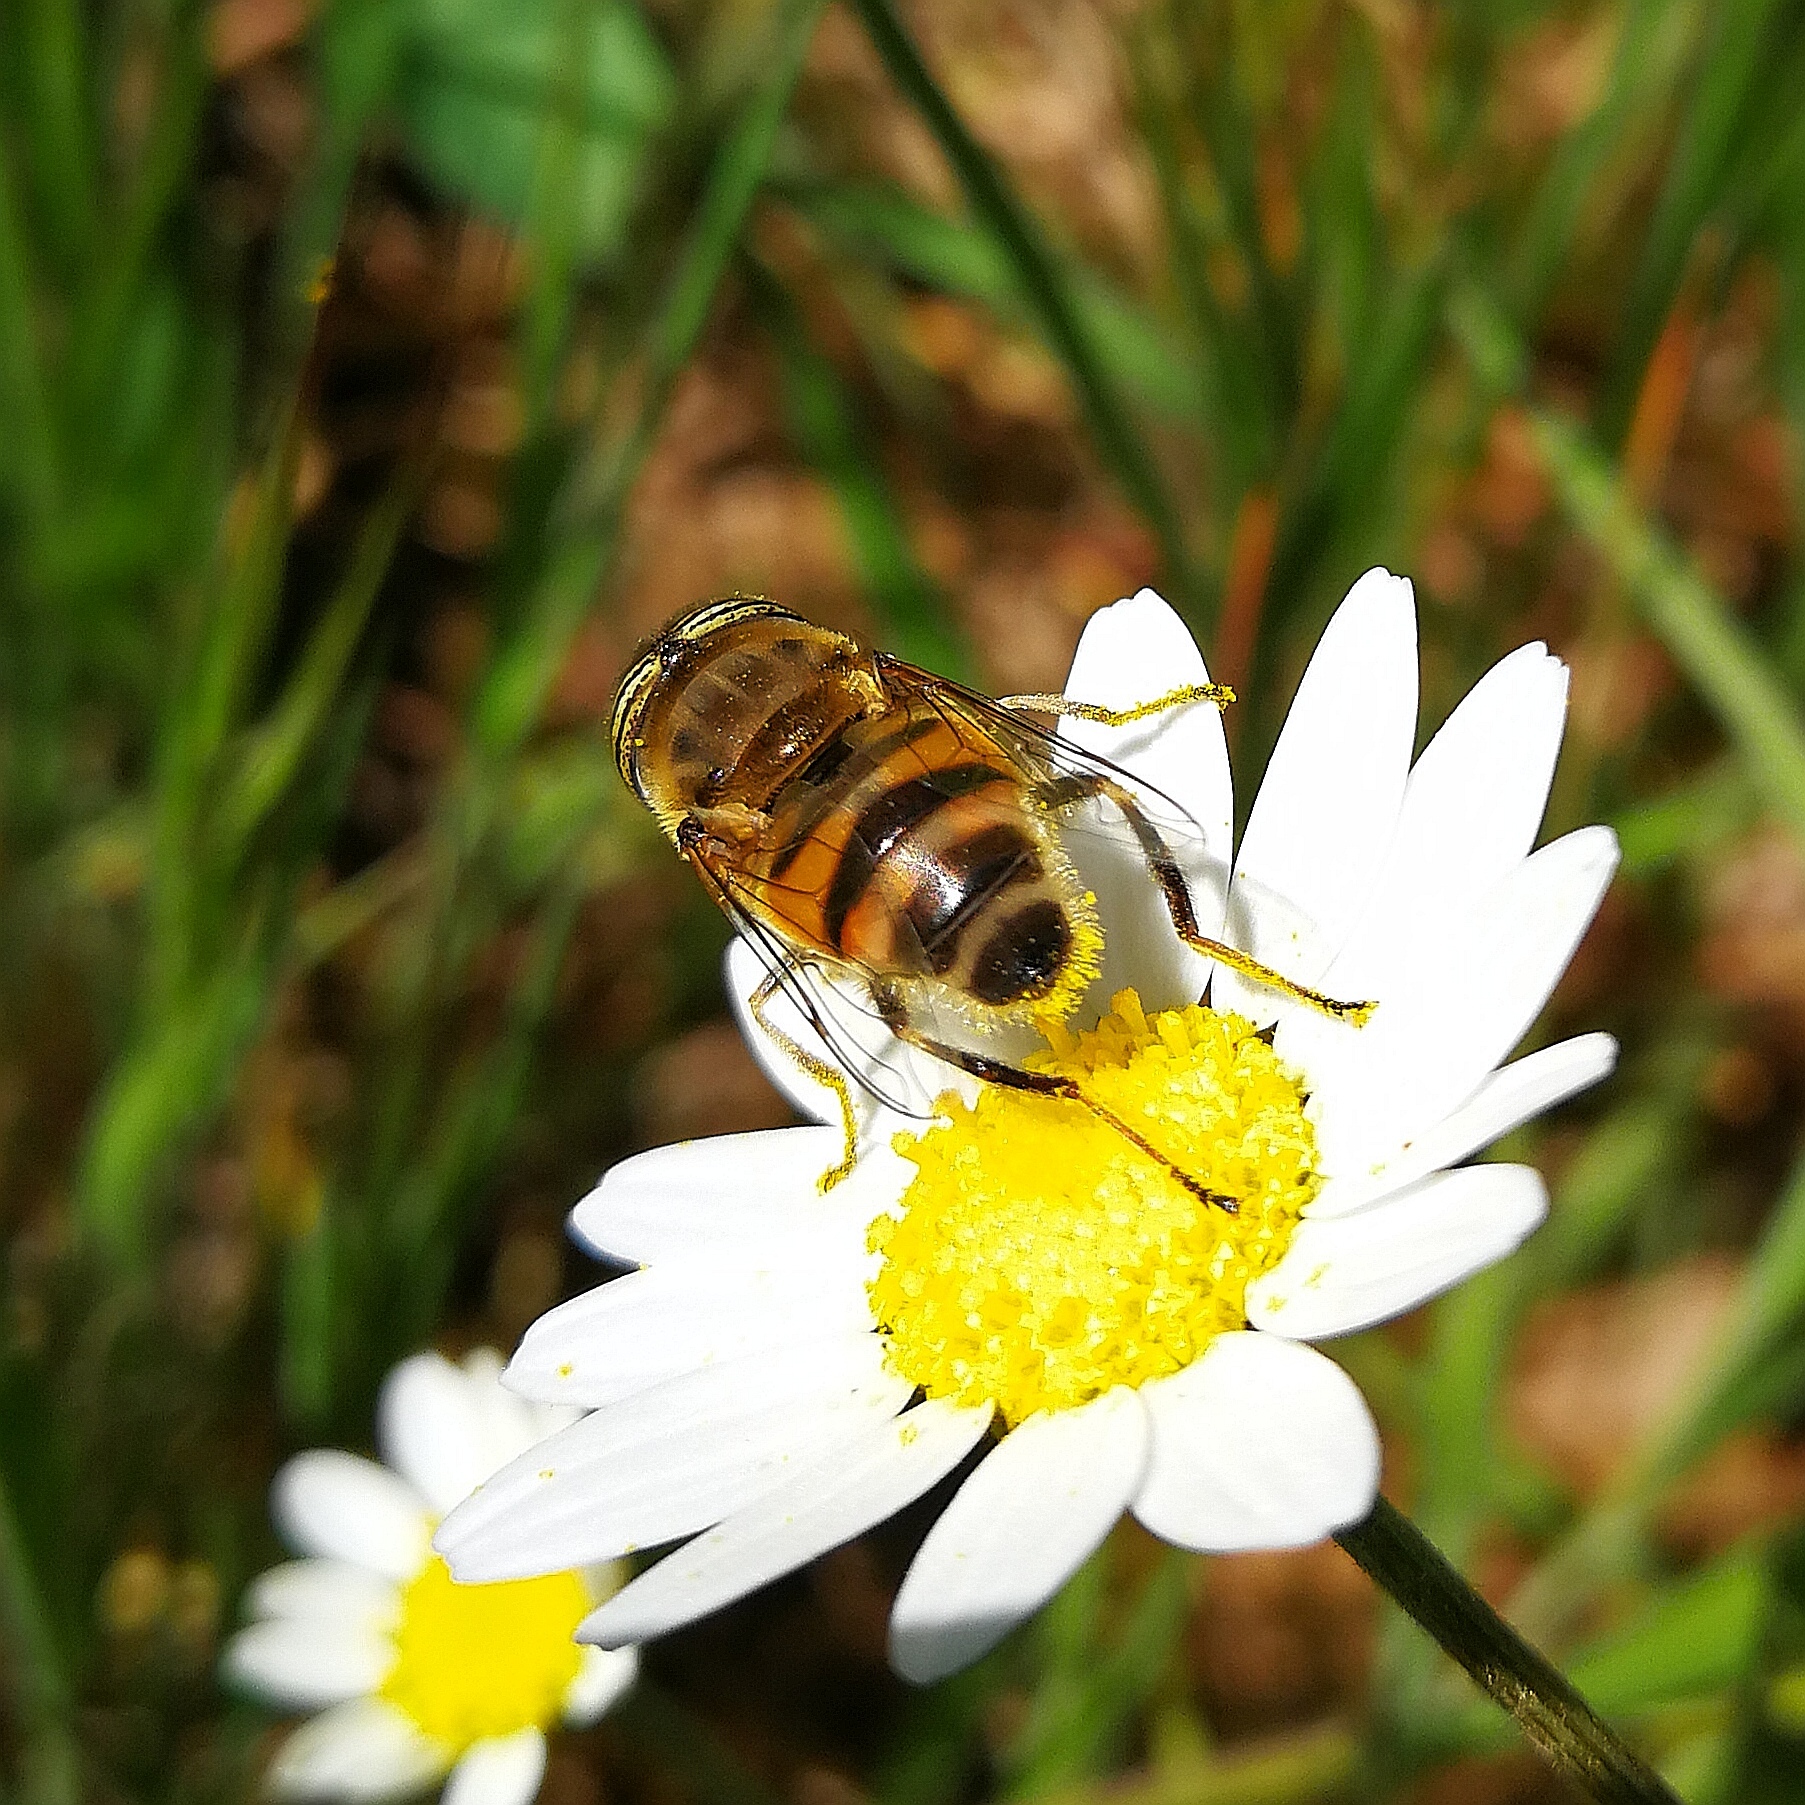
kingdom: Animalia
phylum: Arthropoda
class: Insecta
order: Diptera
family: Syrphidae
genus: Eristalinus
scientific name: Eristalinus taeniops
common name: Syrphid fly
